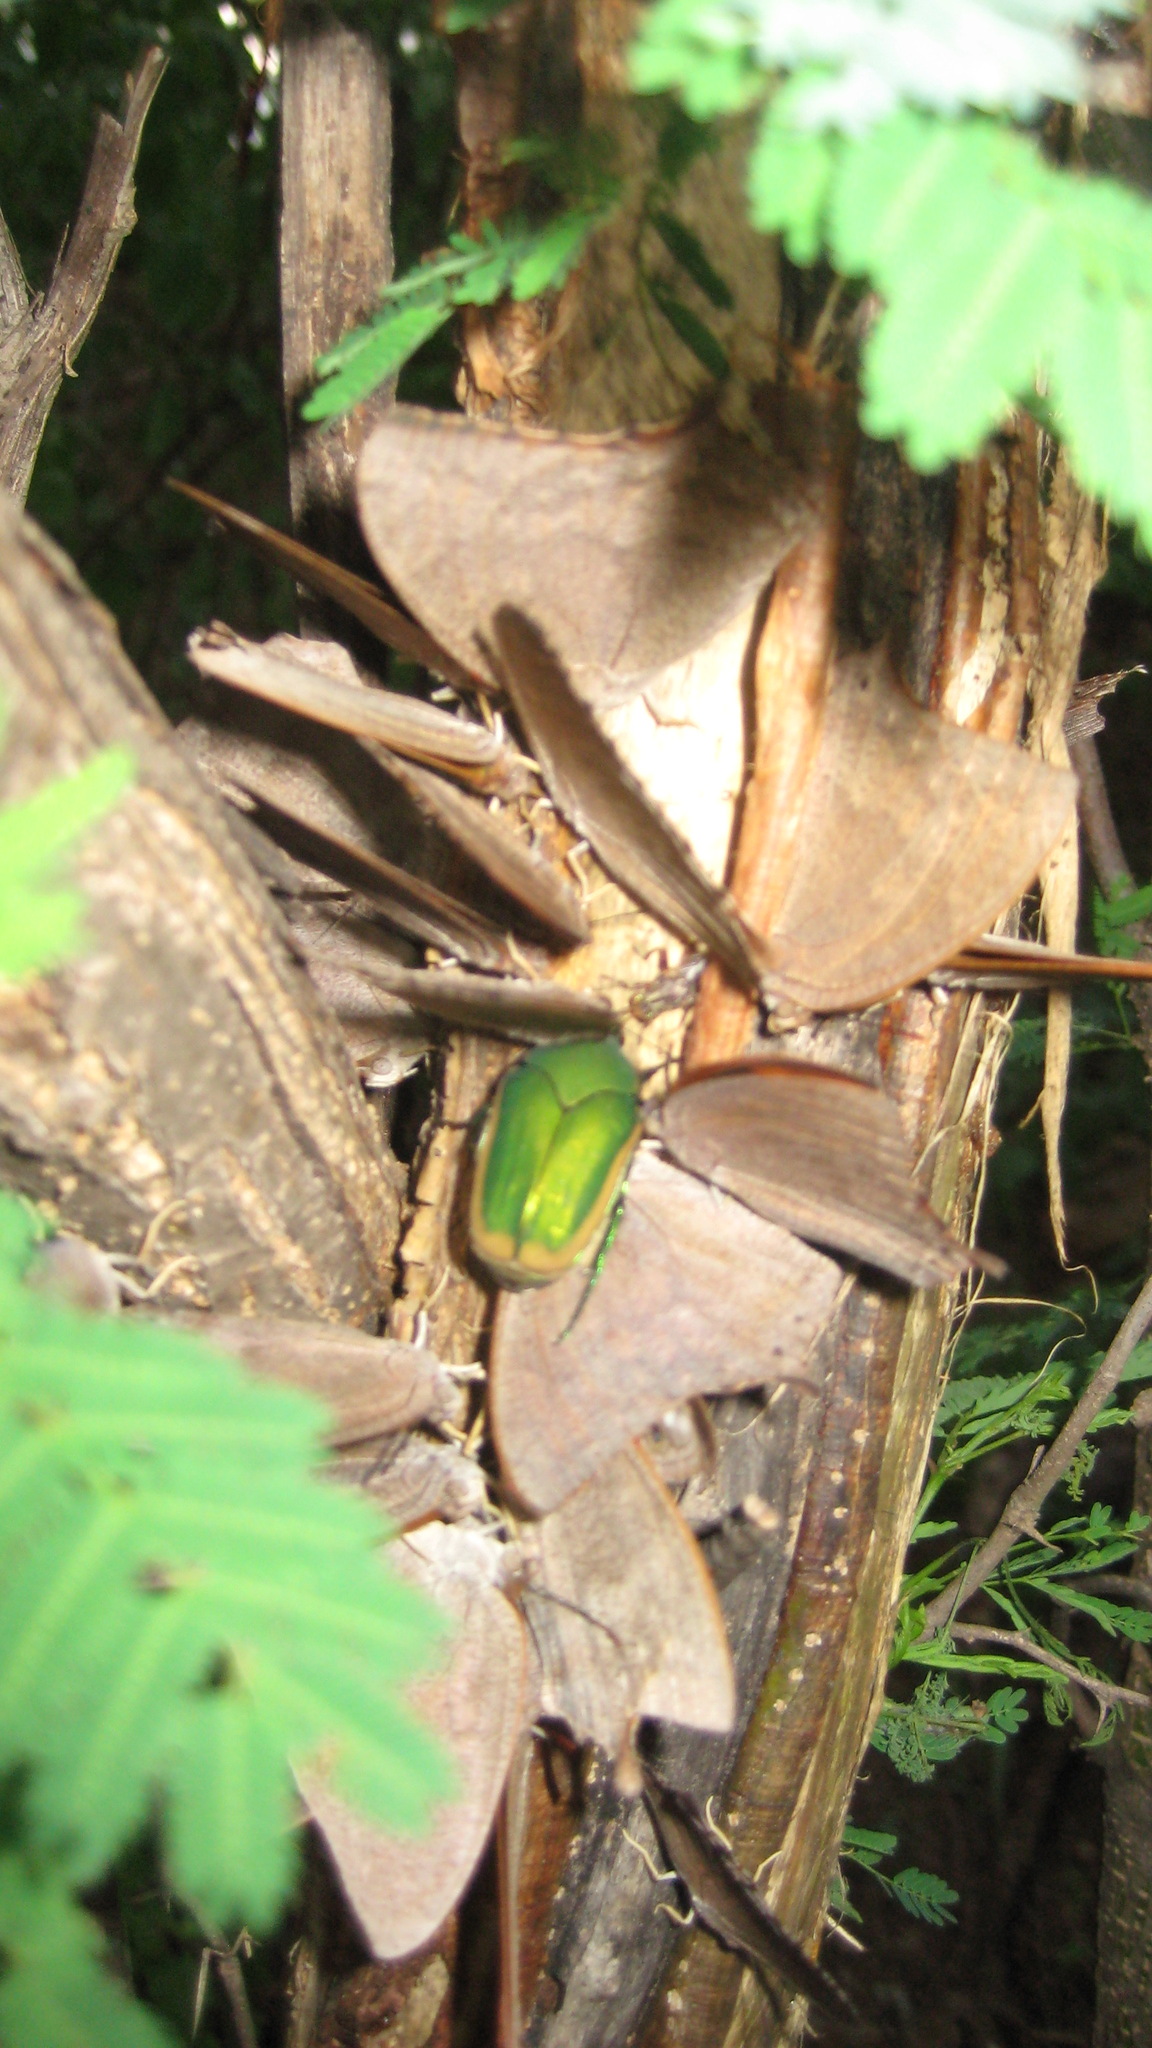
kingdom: Animalia
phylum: Arthropoda
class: Insecta
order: Coleoptera
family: Scarabaeidae
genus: Cotinis
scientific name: Cotinis mutabilis
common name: Figeater beetle
